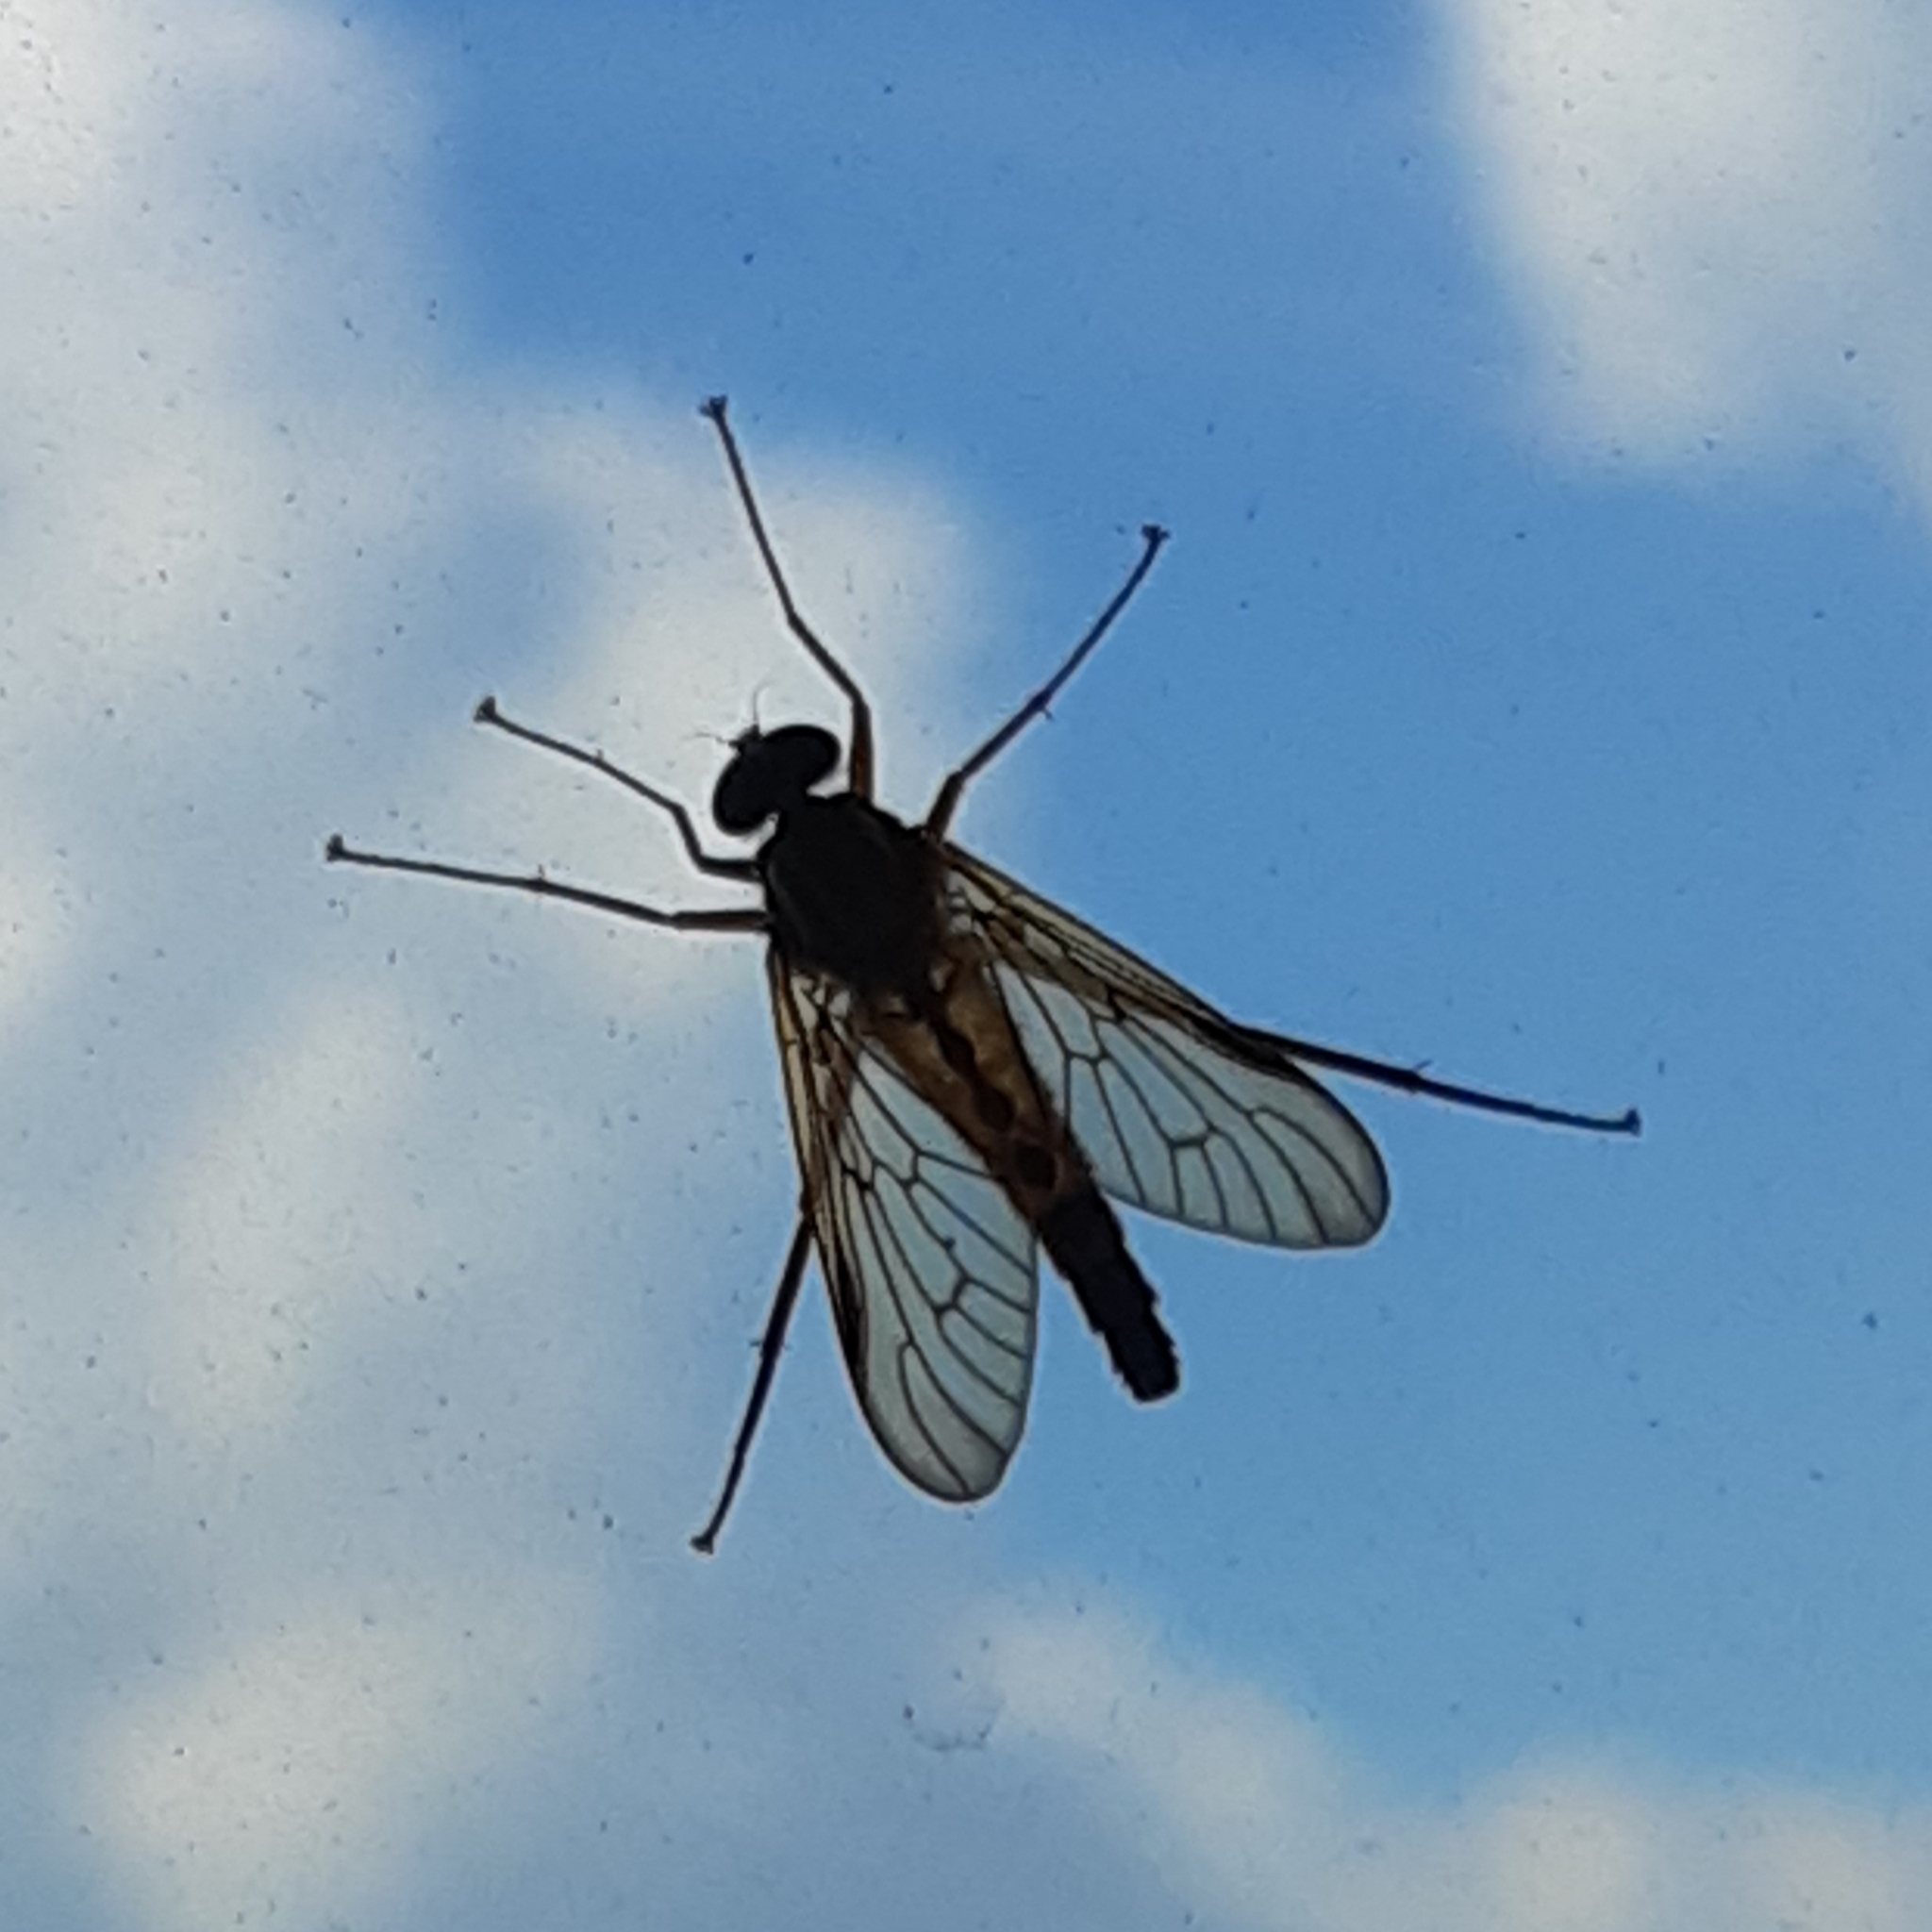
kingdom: Animalia
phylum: Arthropoda
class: Insecta
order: Diptera
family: Rhagionidae
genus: Rhagio
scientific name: Rhagio tringaria
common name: Marsh snipefly
